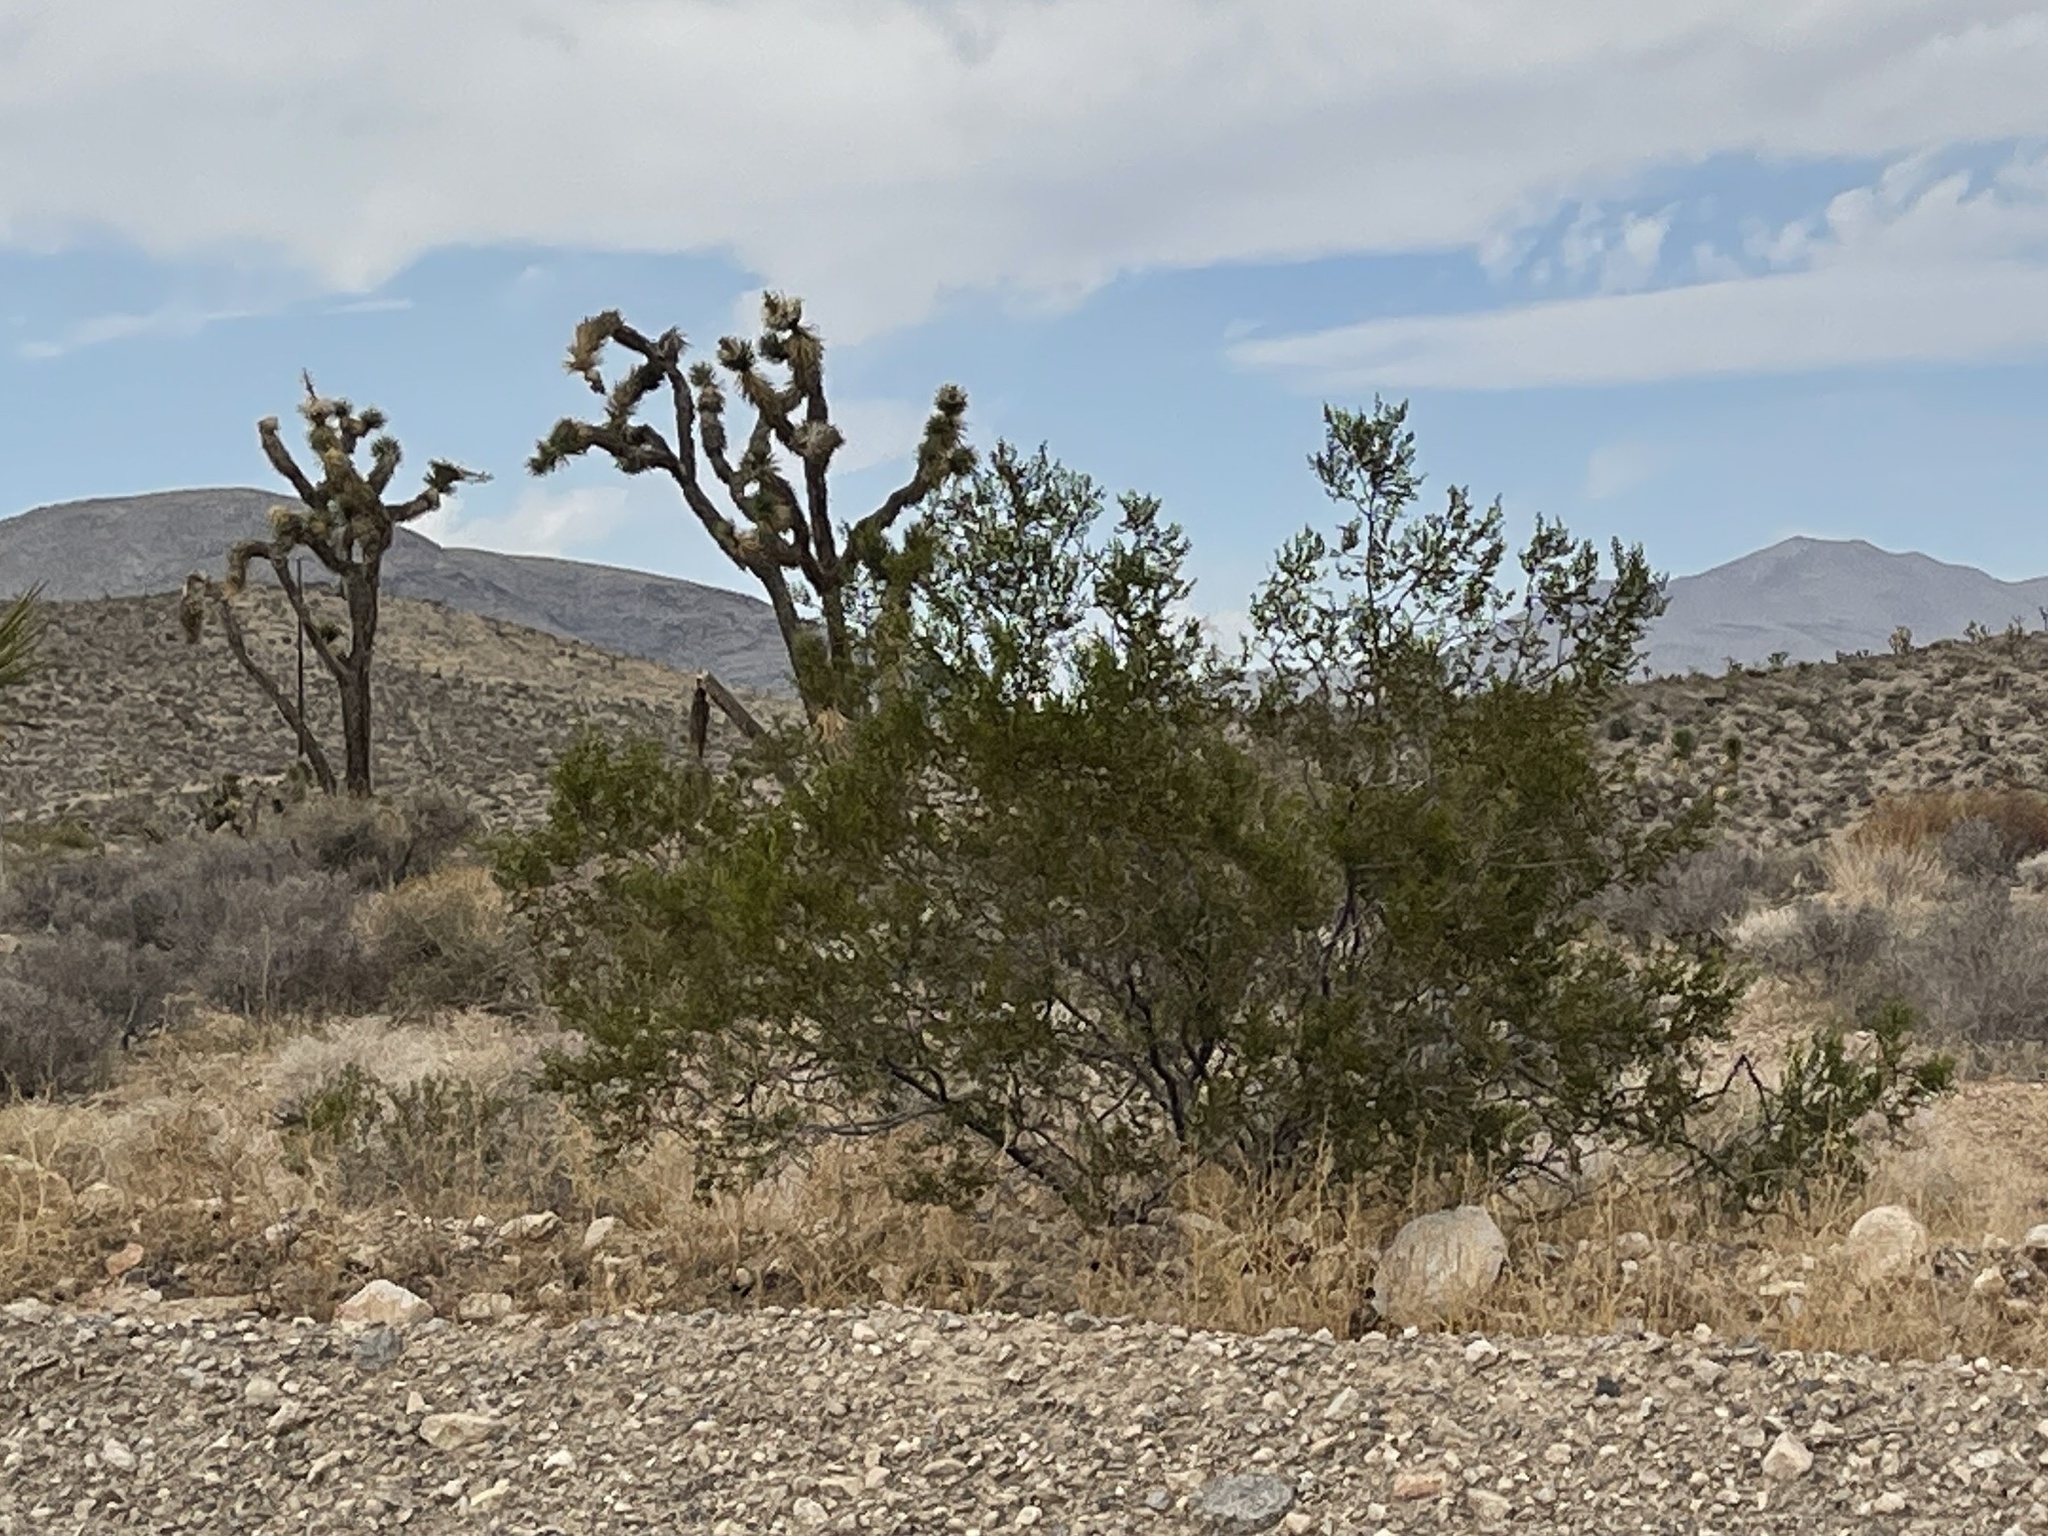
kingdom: Plantae
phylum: Tracheophyta
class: Magnoliopsida
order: Zygophyllales
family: Zygophyllaceae
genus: Larrea
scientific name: Larrea tridentata
